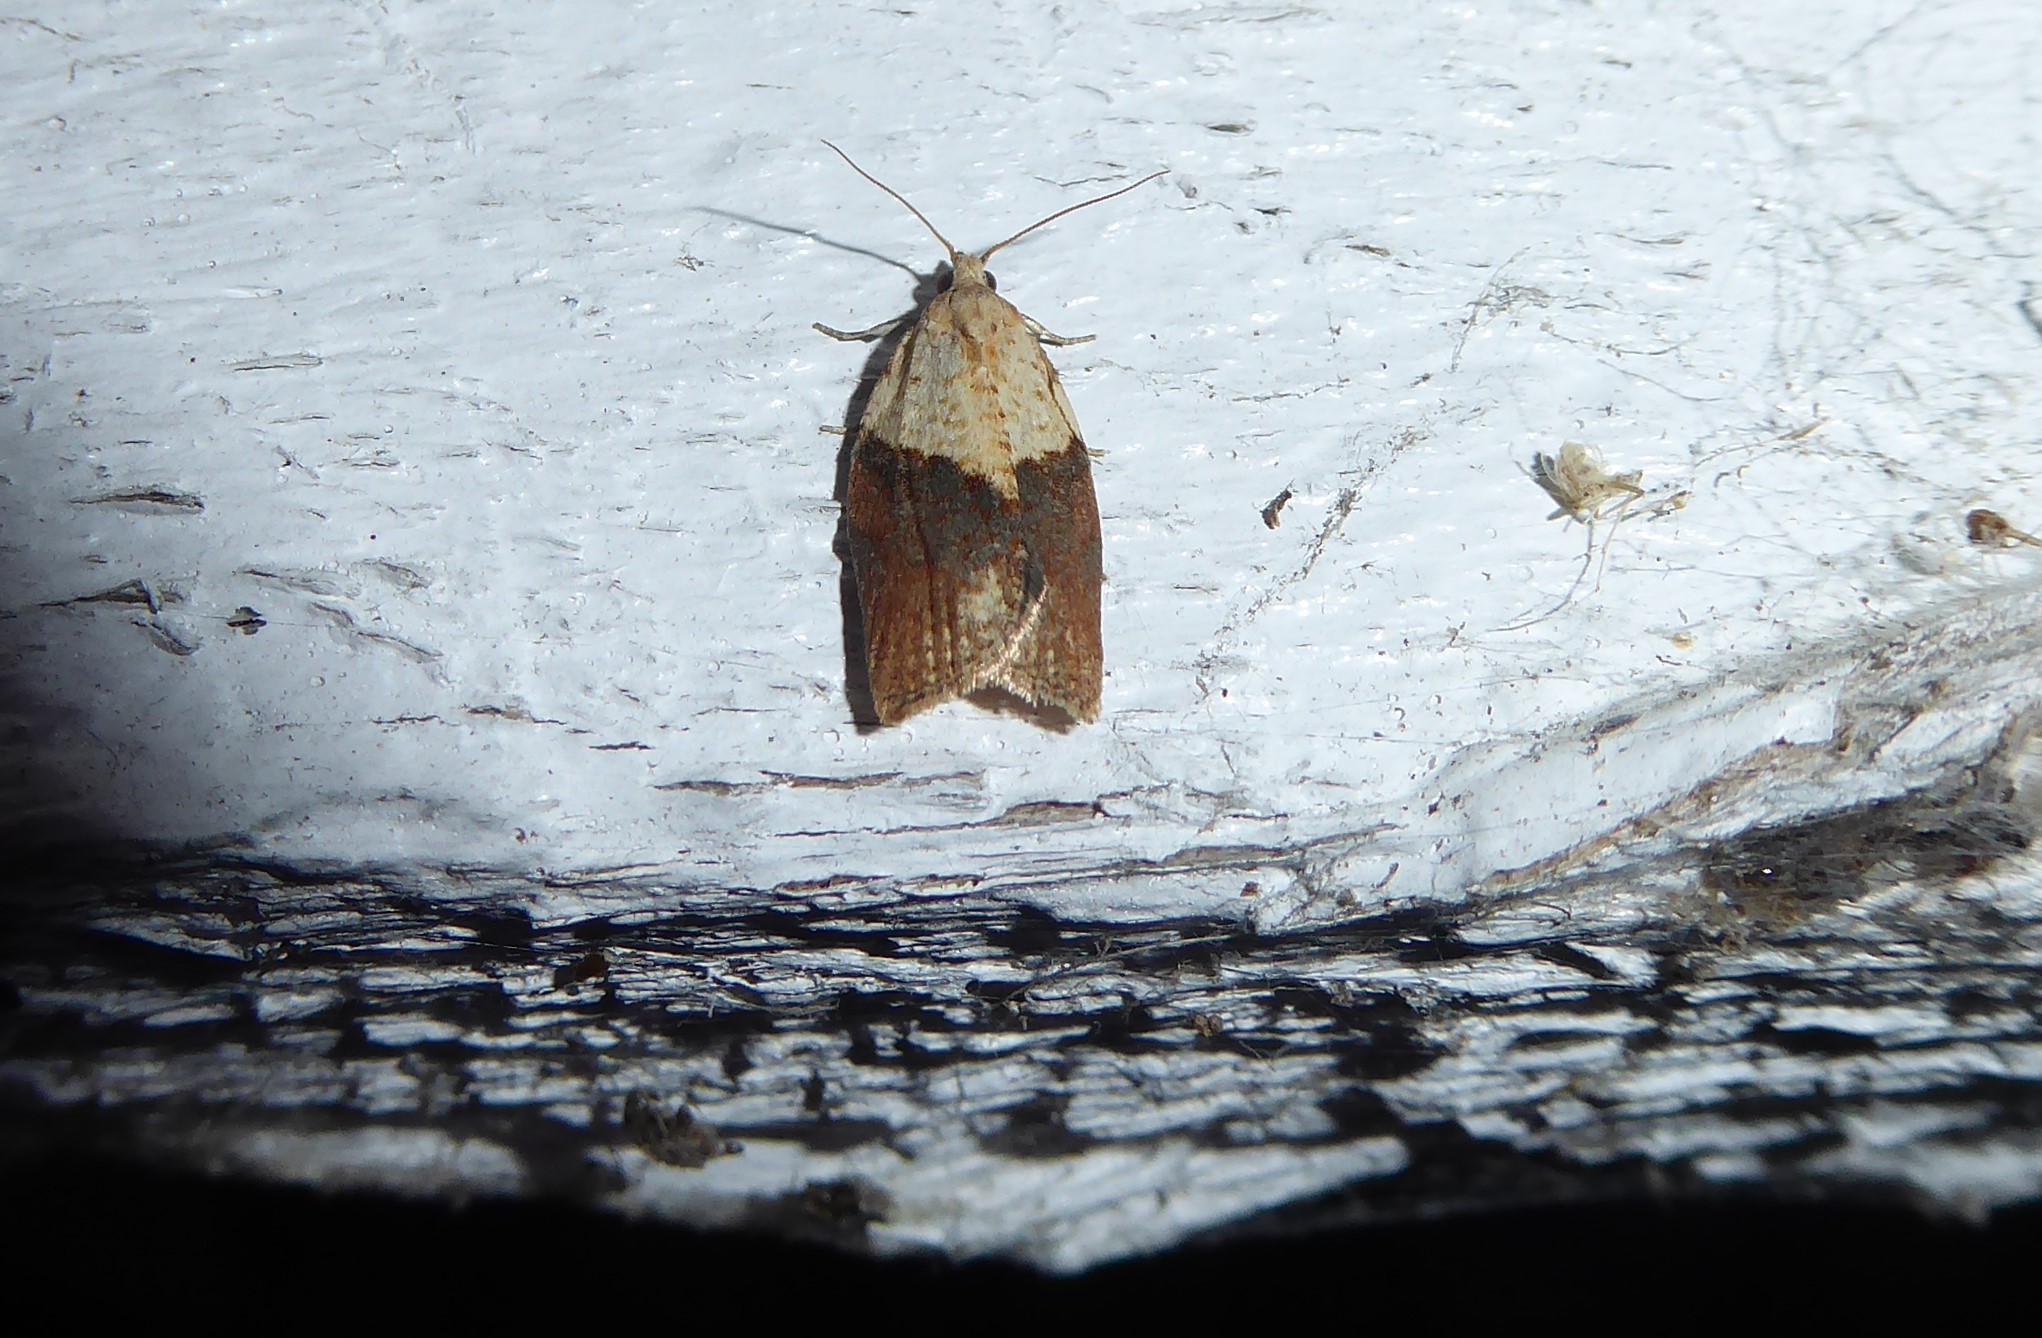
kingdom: Animalia
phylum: Arthropoda
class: Insecta
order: Lepidoptera
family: Tortricidae
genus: Epiphyas
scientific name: Epiphyas postvittana
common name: Light brown apple moth
